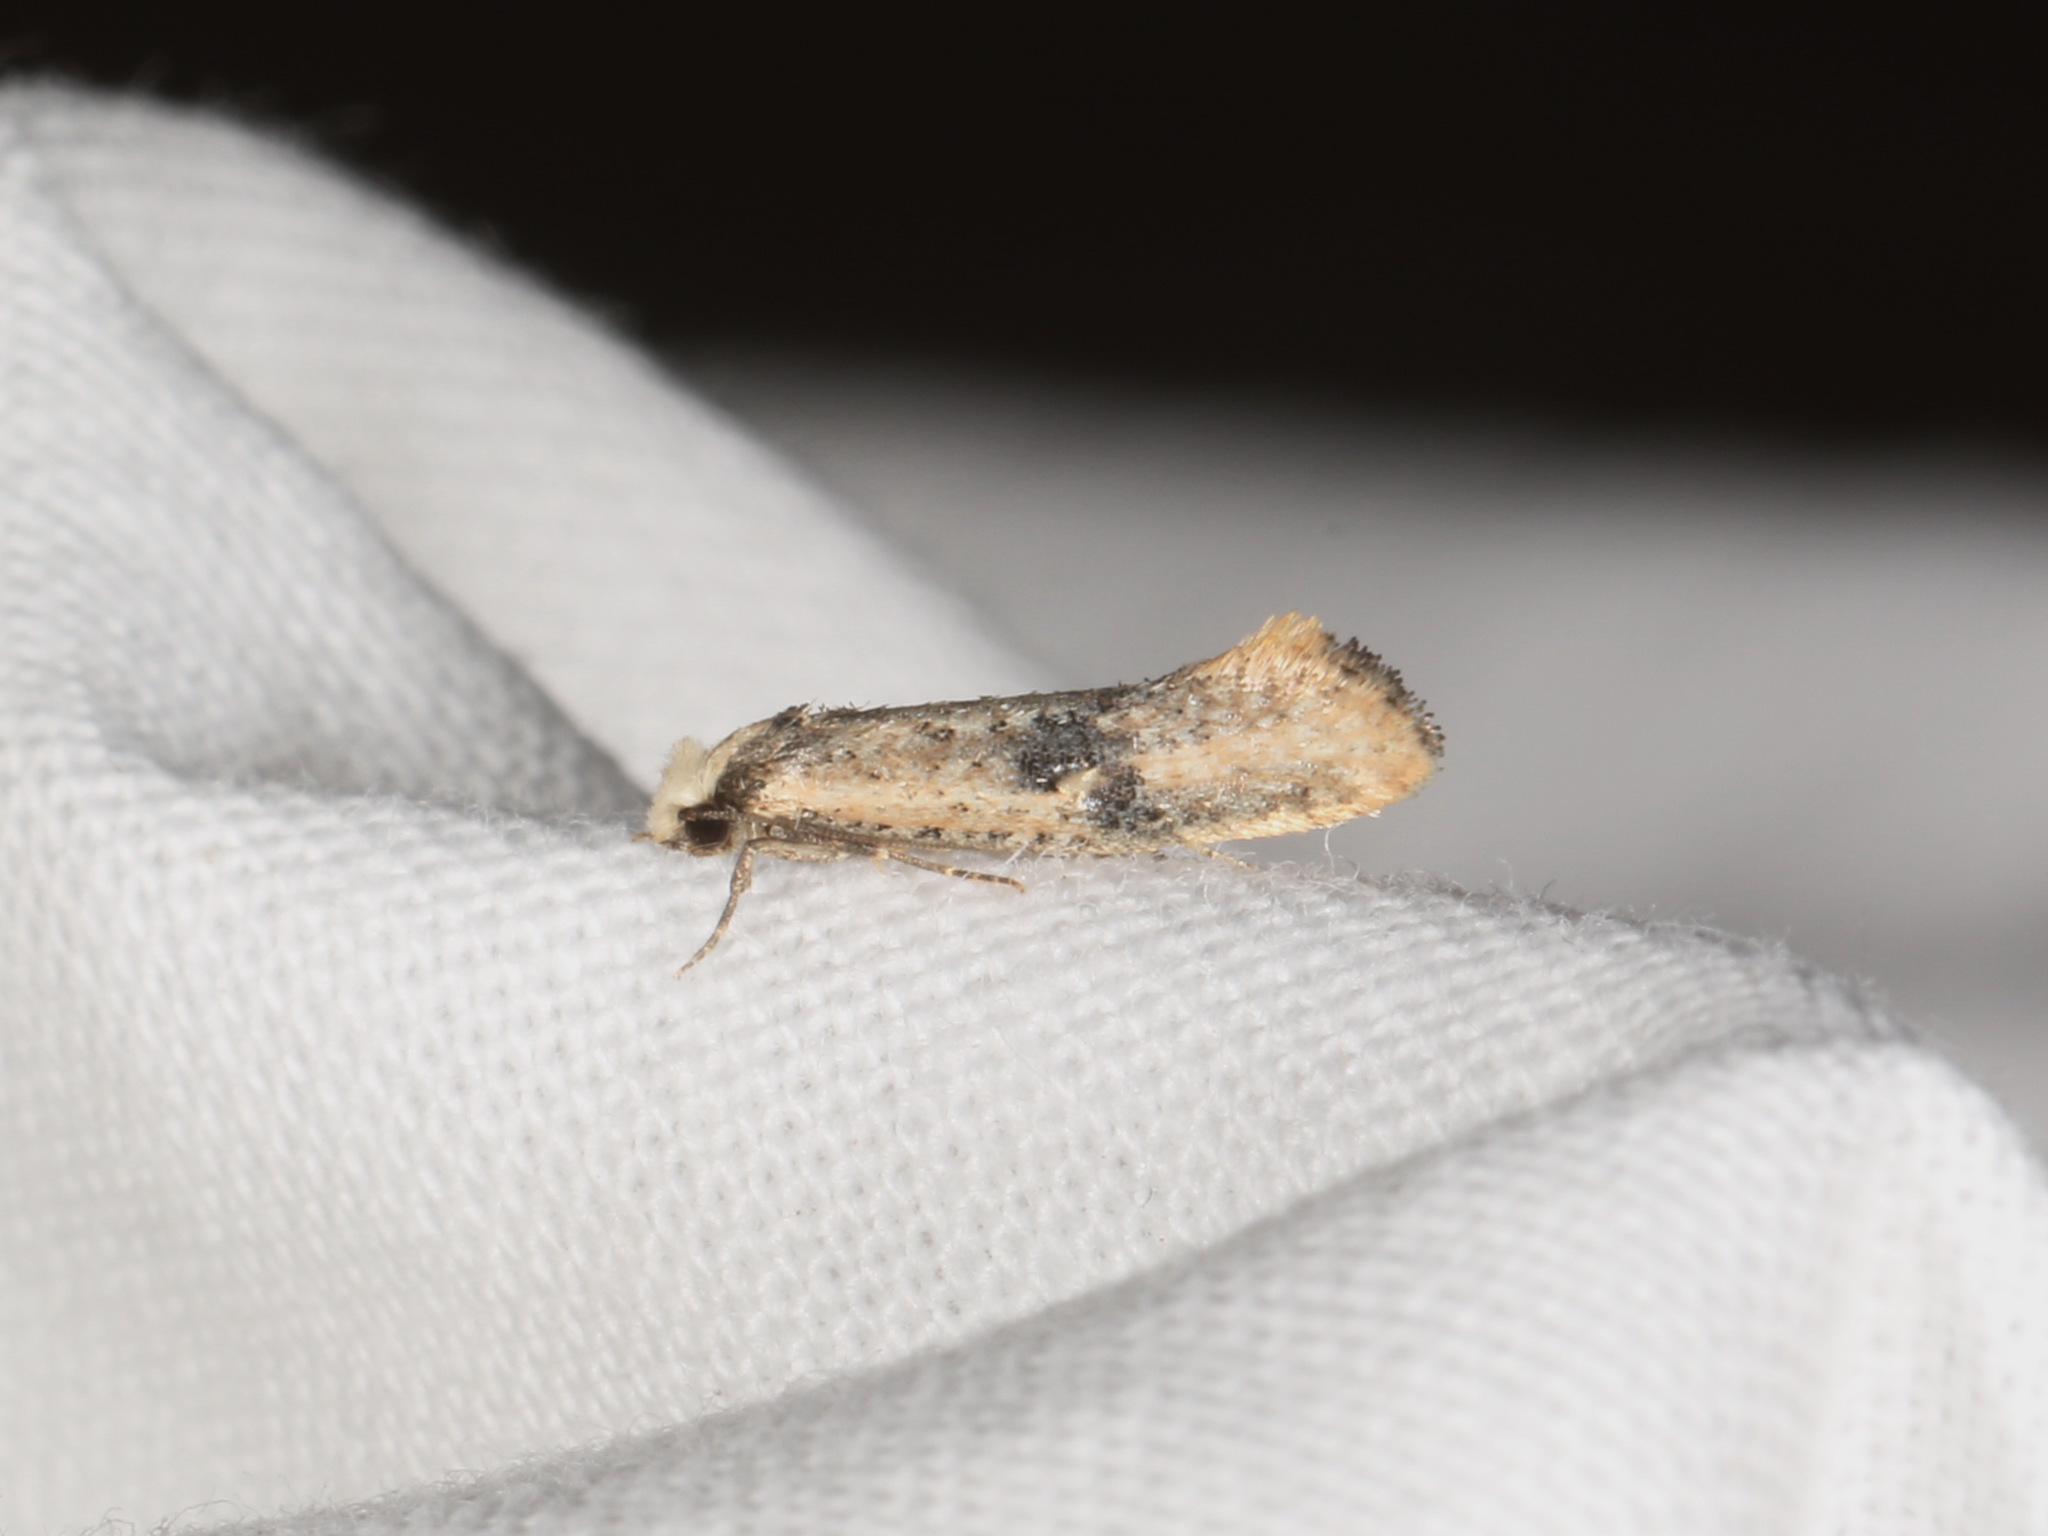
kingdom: Animalia
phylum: Arthropoda
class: Insecta
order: Lepidoptera
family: Tineidae
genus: Monopis
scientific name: Monopis argillacea
